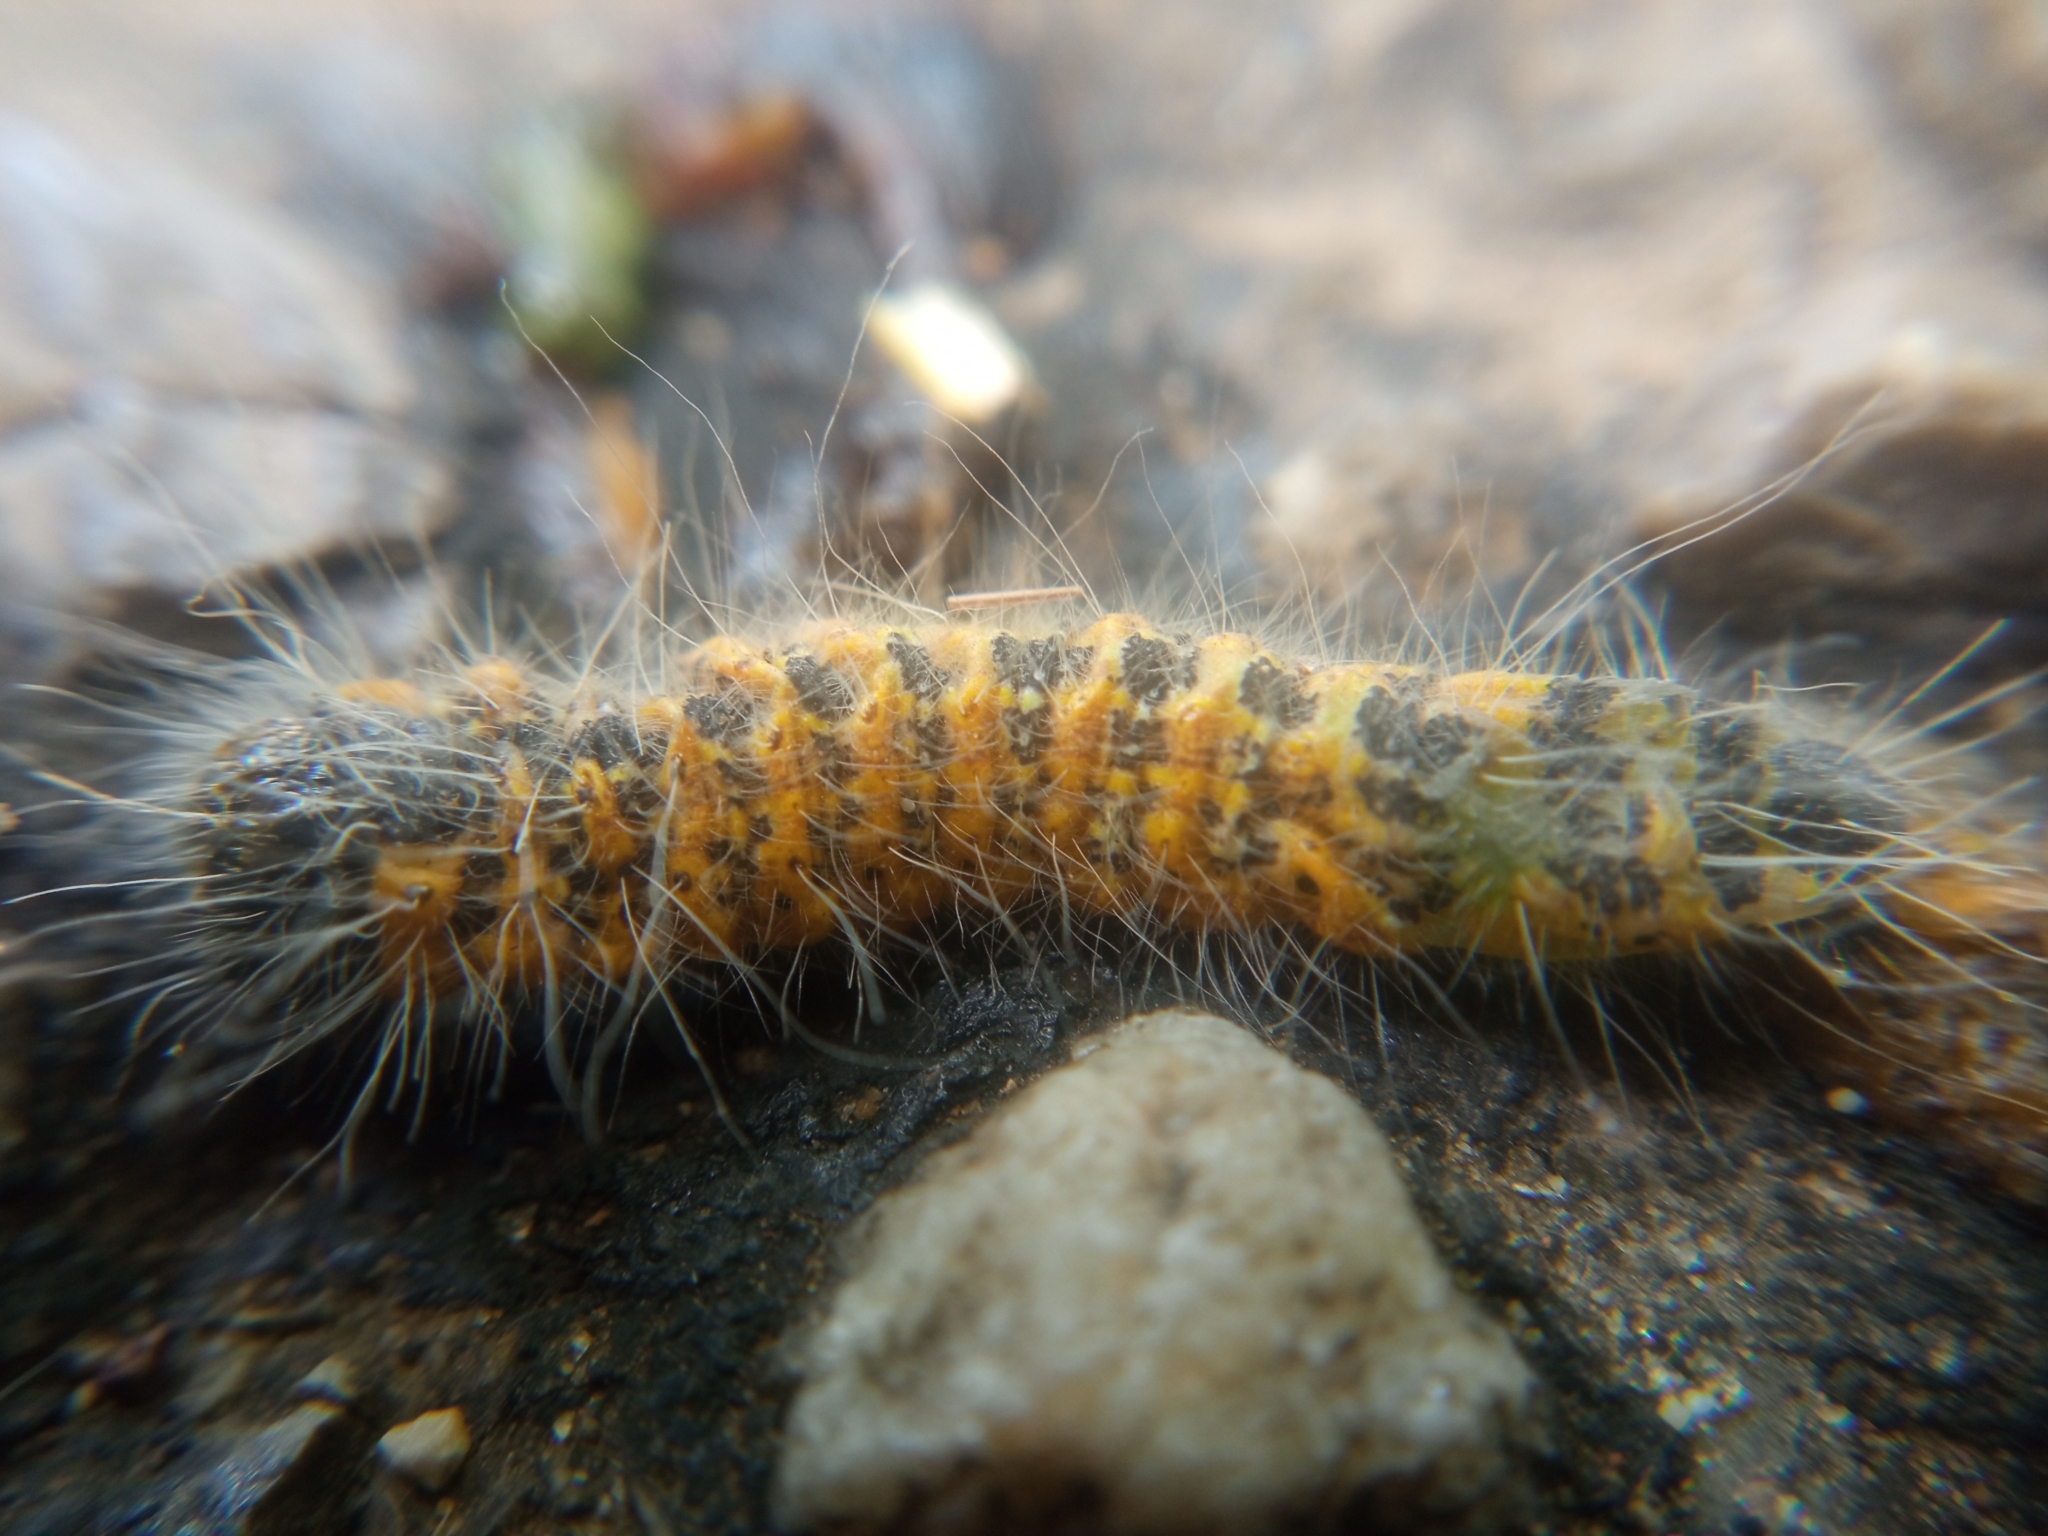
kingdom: Animalia
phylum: Arthropoda
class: Insecta
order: Lepidoptera
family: Notodontidae
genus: Phalera
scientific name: Phalera bucephala
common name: Buff-tip
